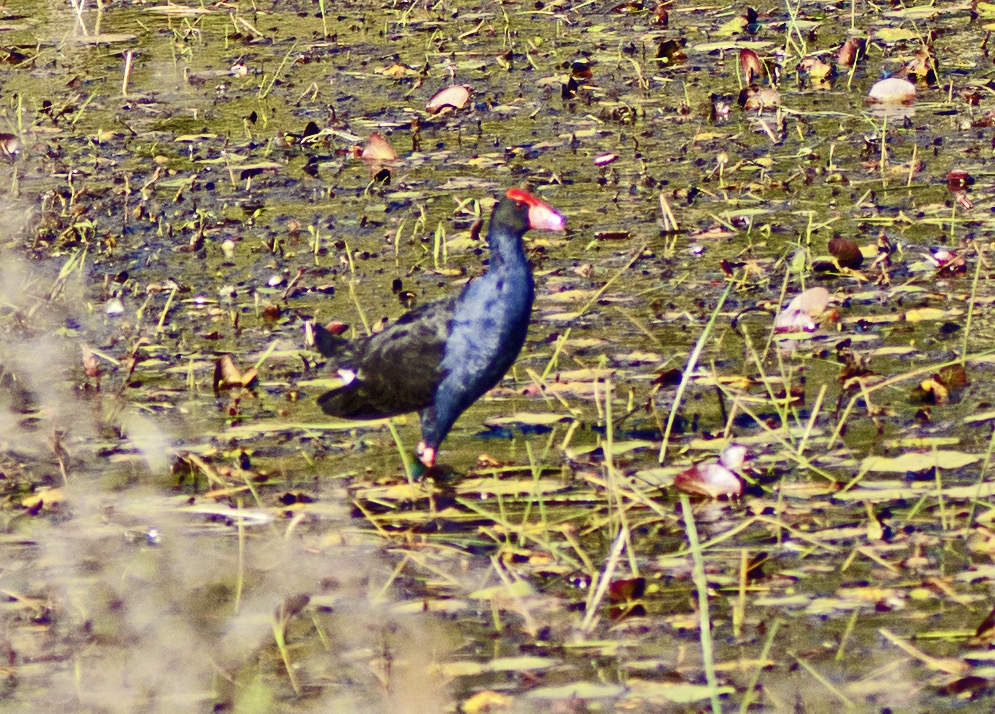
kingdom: Animalia
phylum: Chordata
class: Aves
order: Gruiformes
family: Rallidae
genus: Porphyrio
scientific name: Porphyrio melanotus
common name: Australasian swamphen
